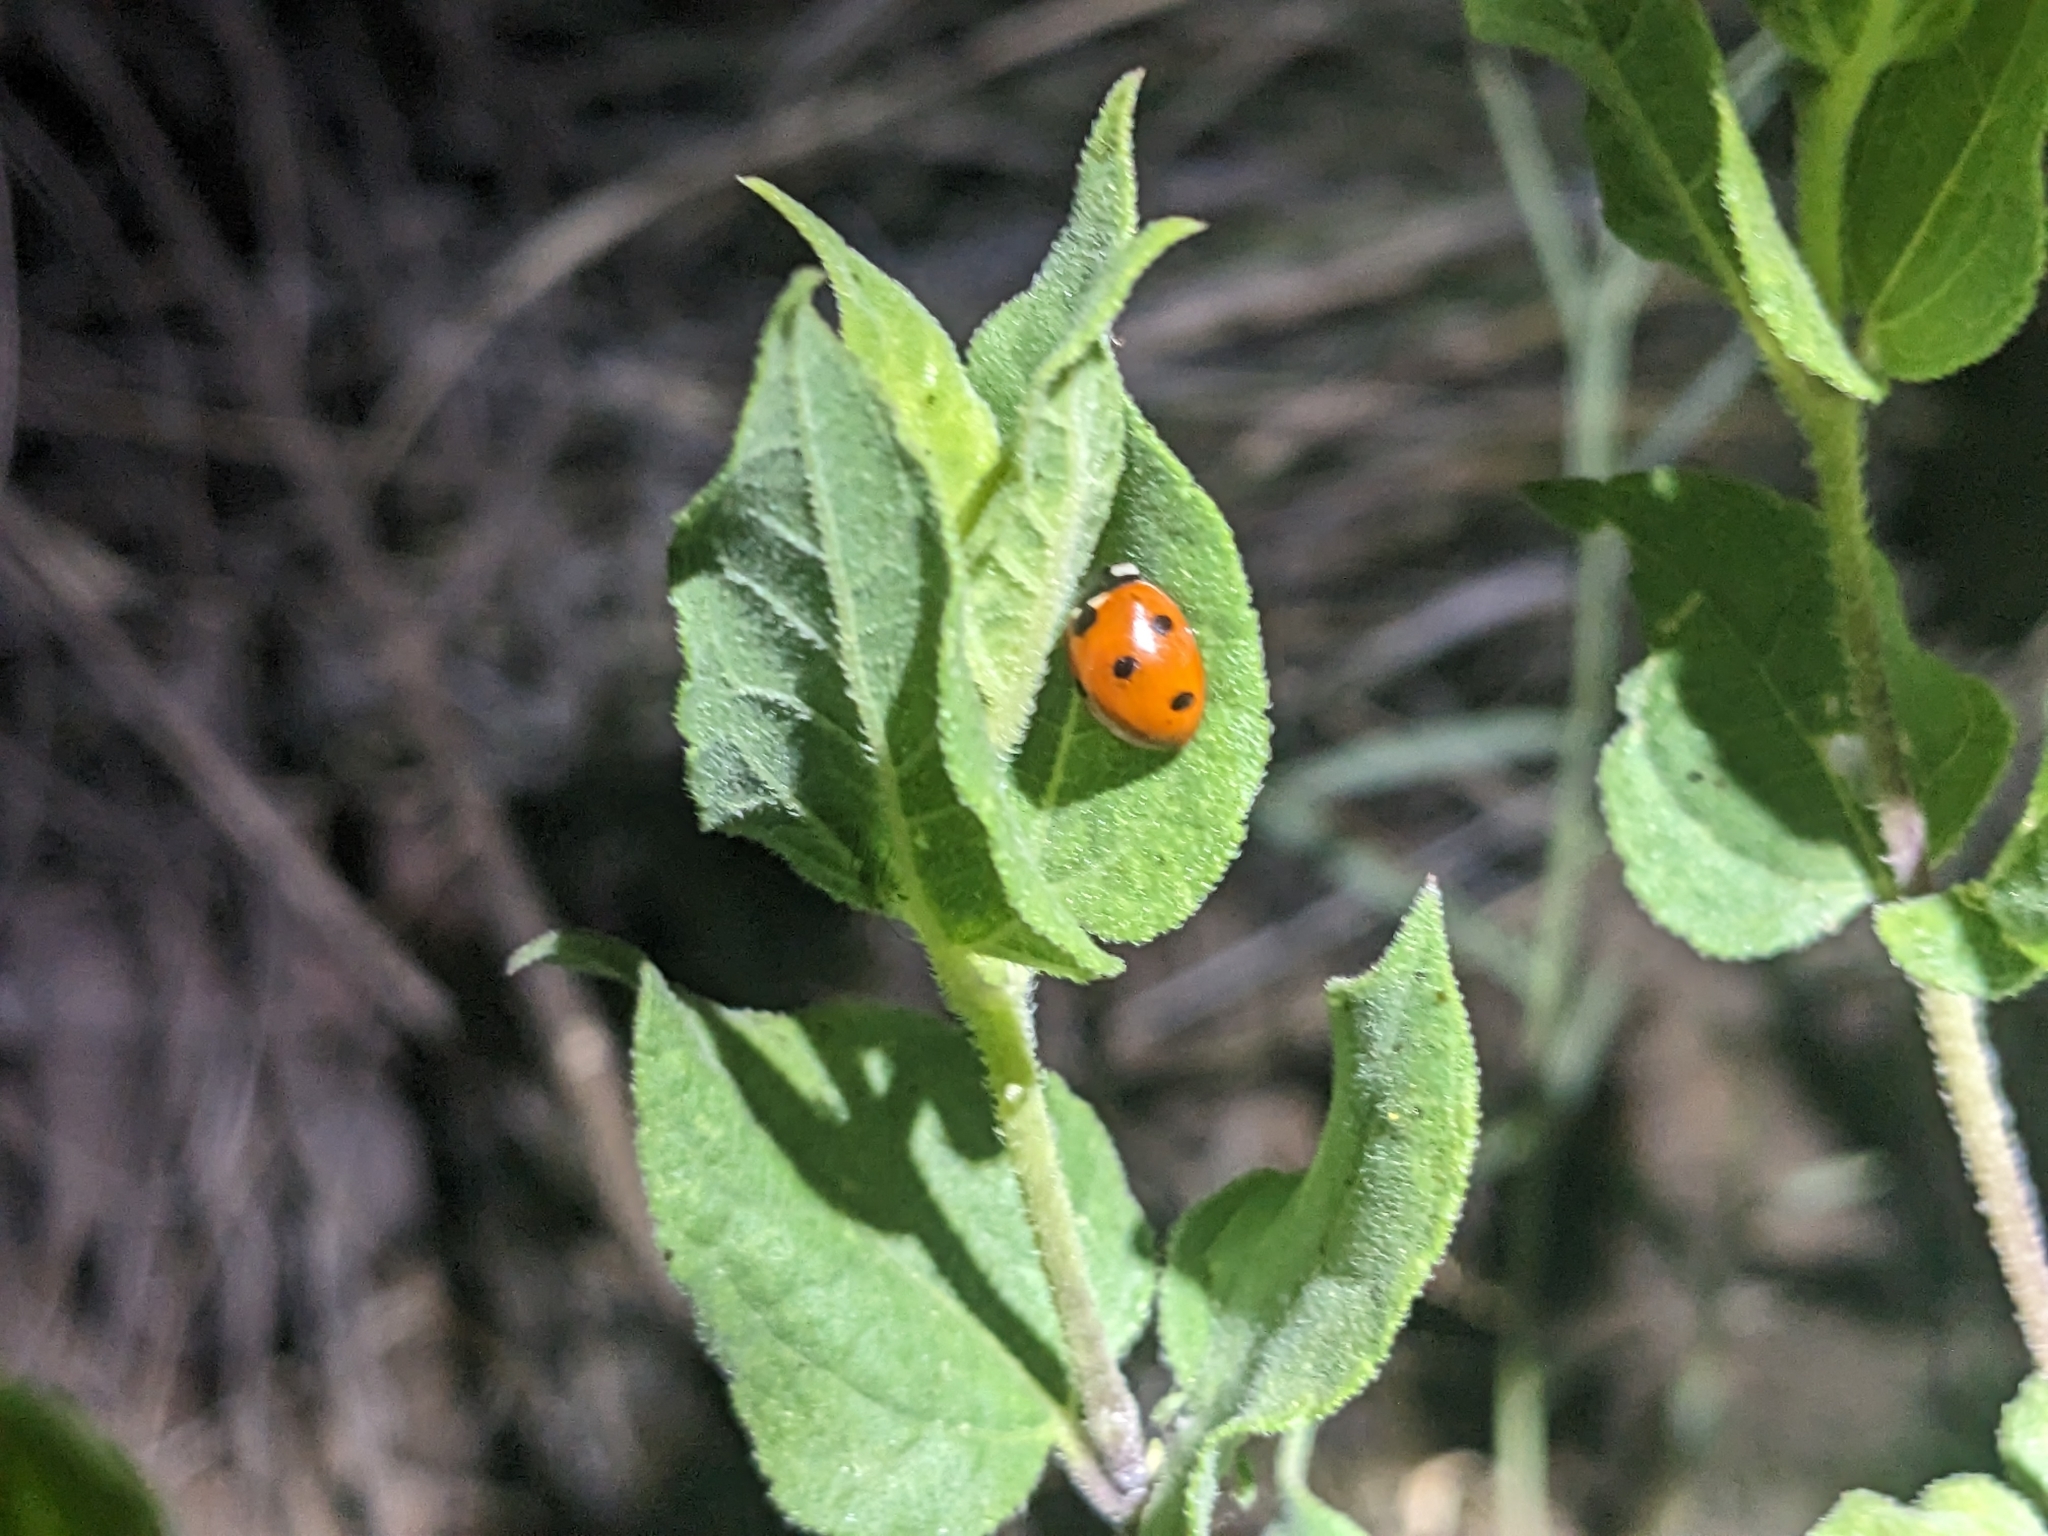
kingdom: Animalia
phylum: Arthropoda
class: Insecta
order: Coleoptera
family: Coccinellidae
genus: Coccinella
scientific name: Coccinella septempunctata
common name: Sevenspotted lady beetle
